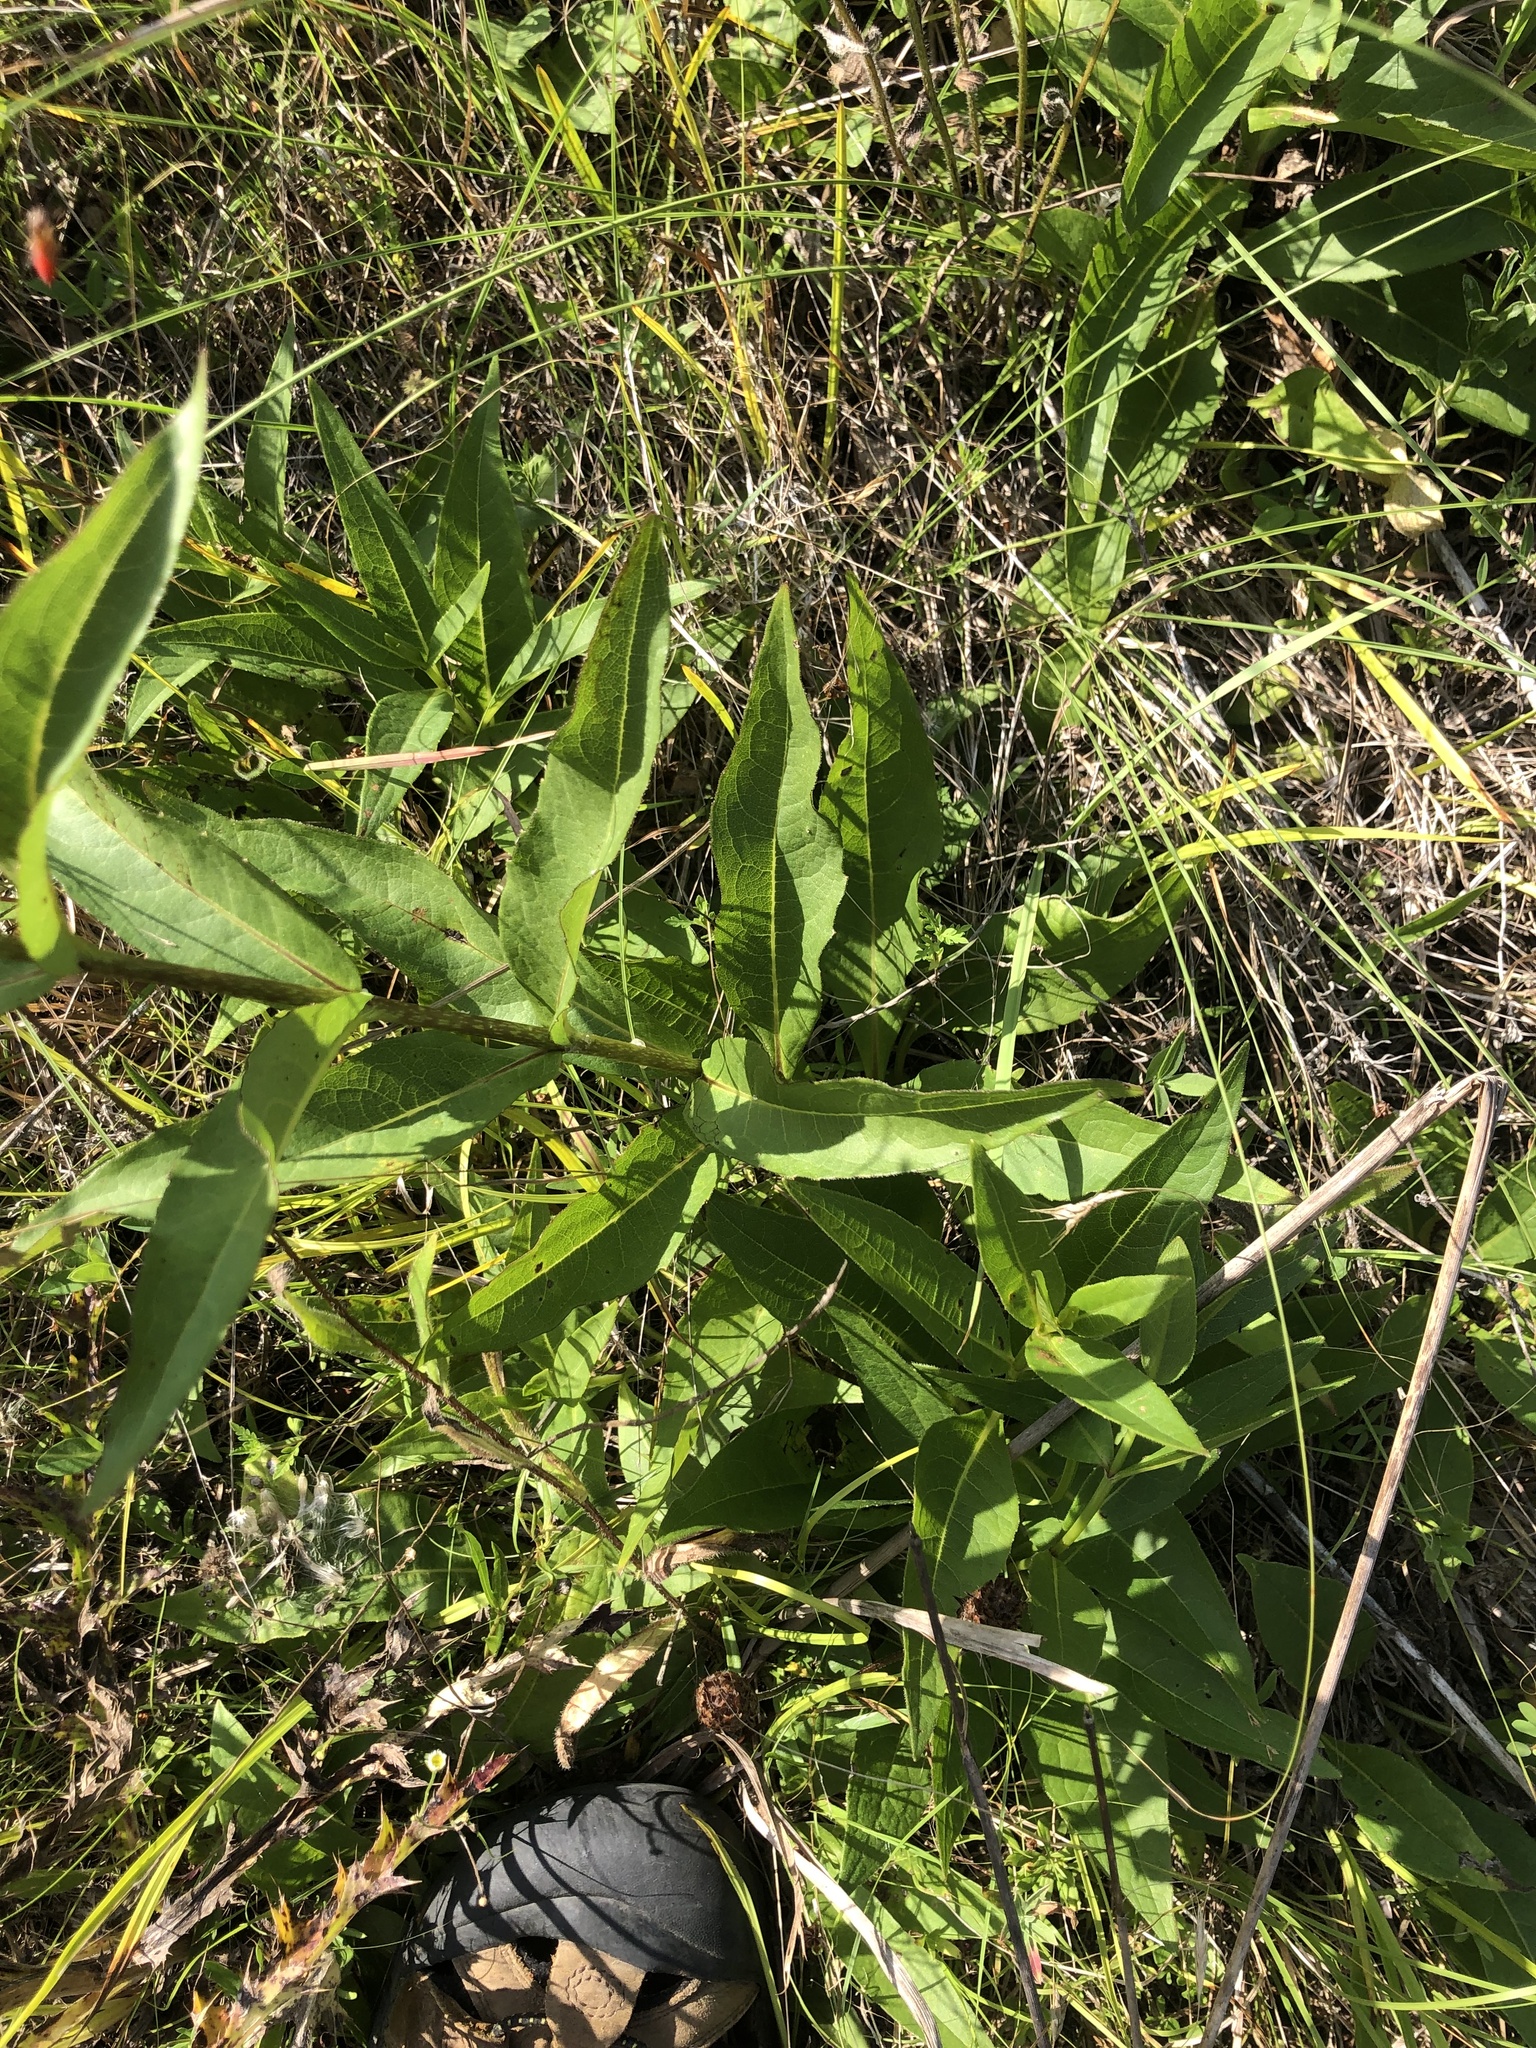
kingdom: Plantae
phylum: Tracheophyta
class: Magnoliopsida
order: Asterales
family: Asteraceae
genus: Silphium
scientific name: Silphium integrifolium
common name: Whole-leaf rosinweed
